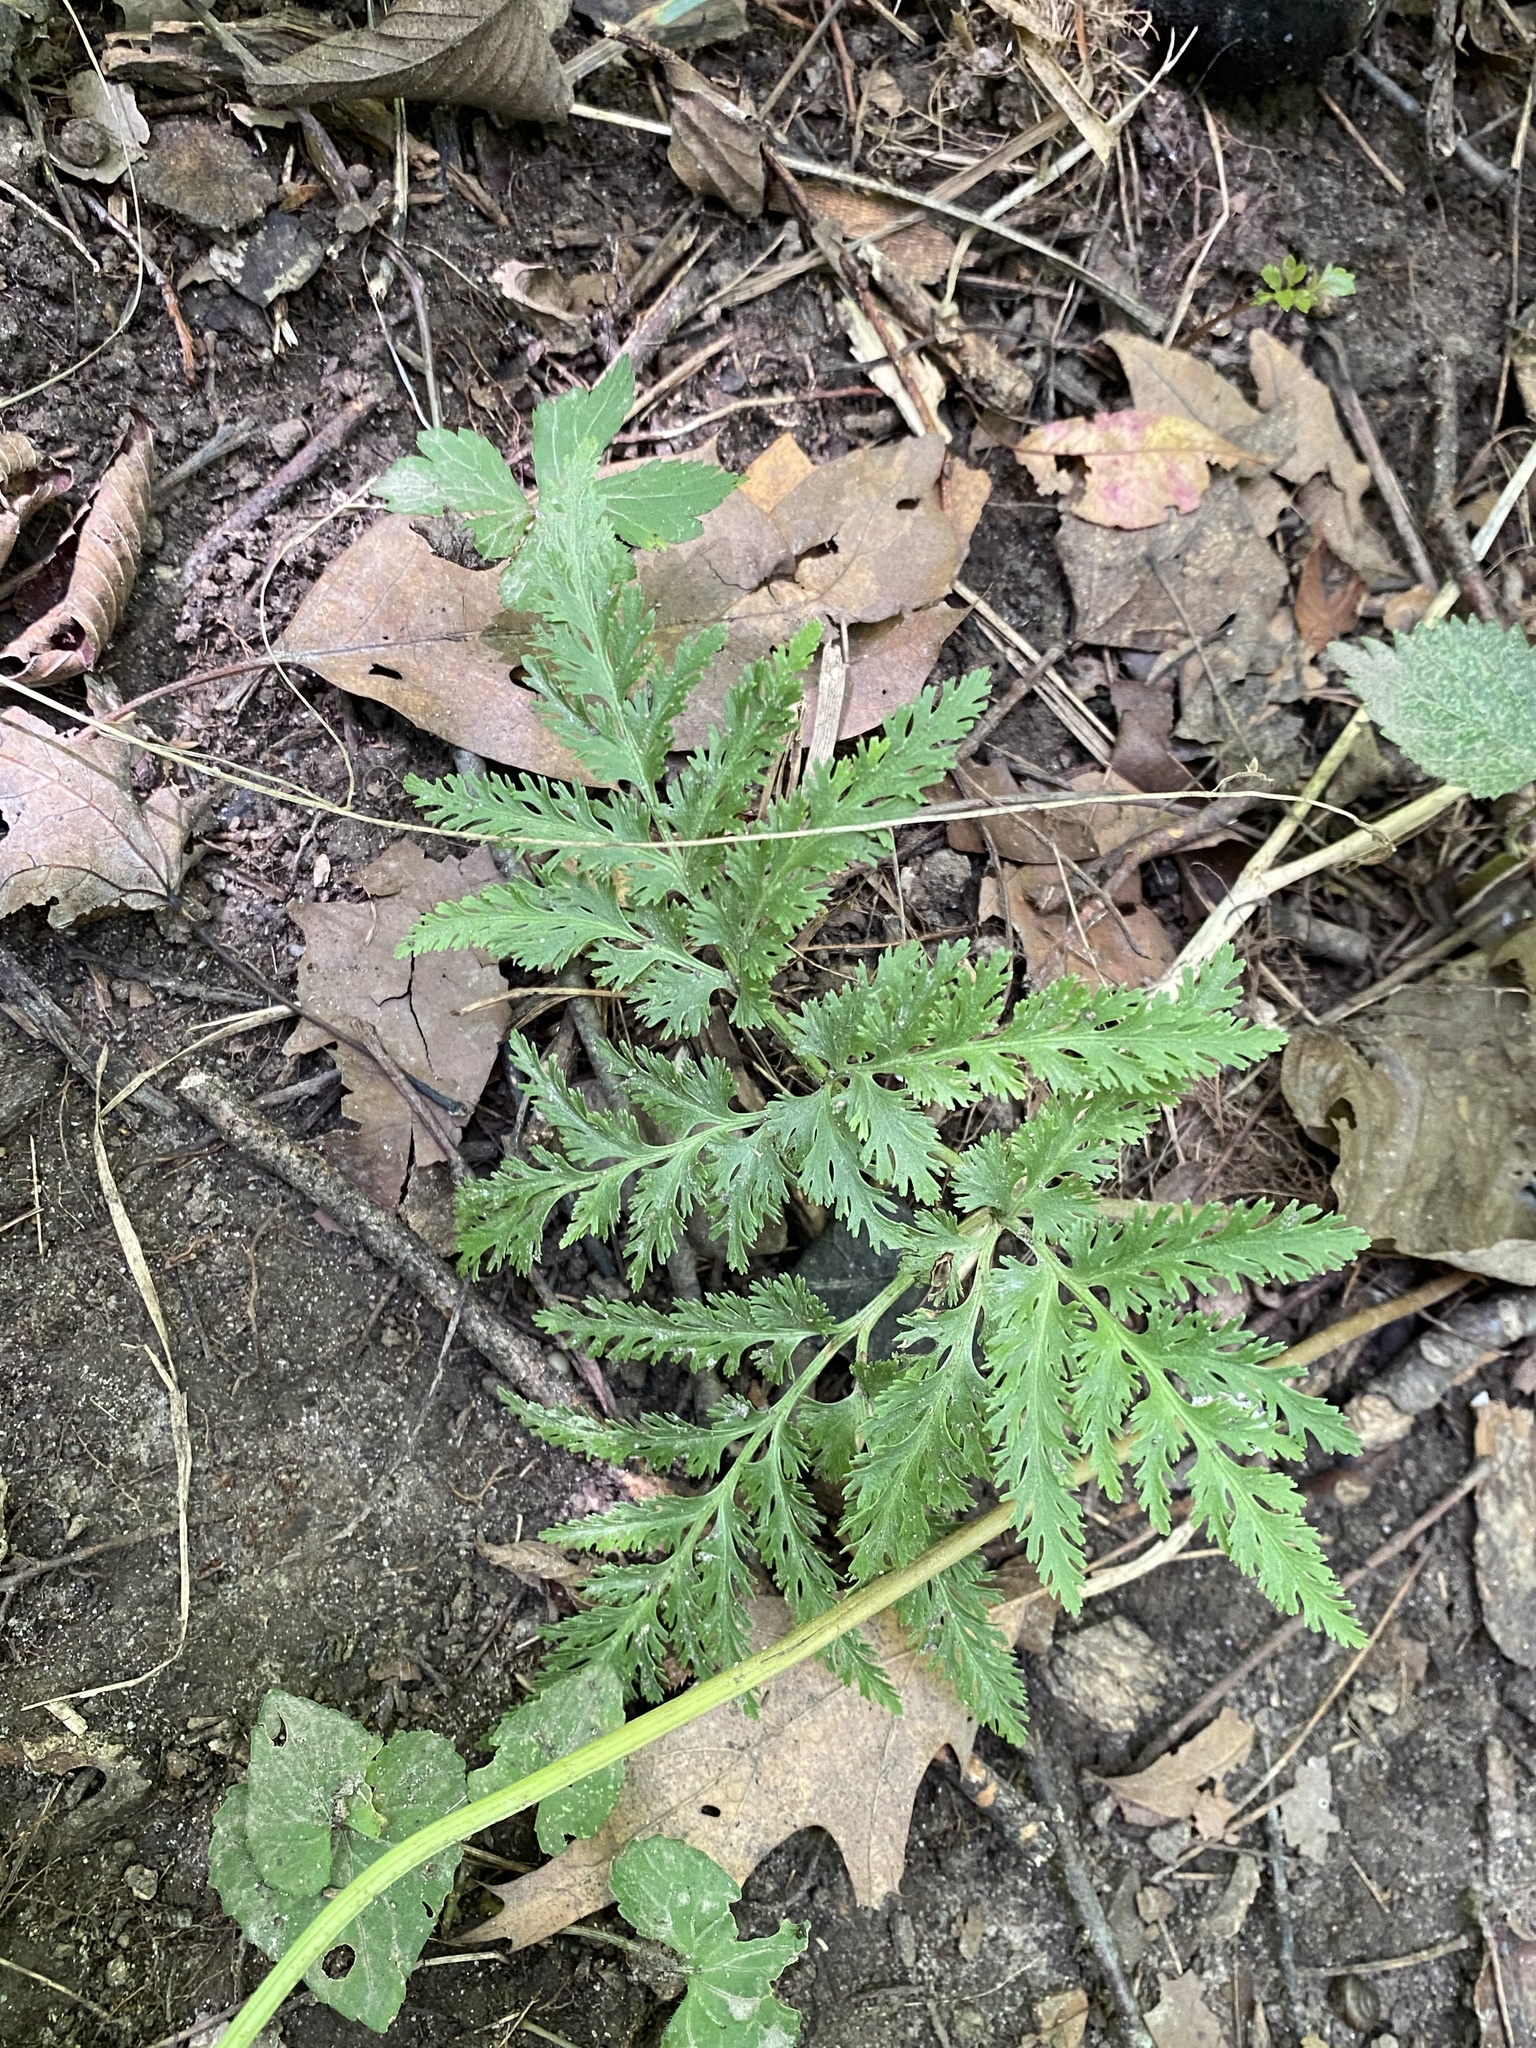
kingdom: Plantae
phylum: Tracheophyta
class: Polypodiopsida
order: Ophioglossales
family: Ophioglossaceae
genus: Sceptridium
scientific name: Sceptridium dissectum
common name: Cut-leaved grapefern
